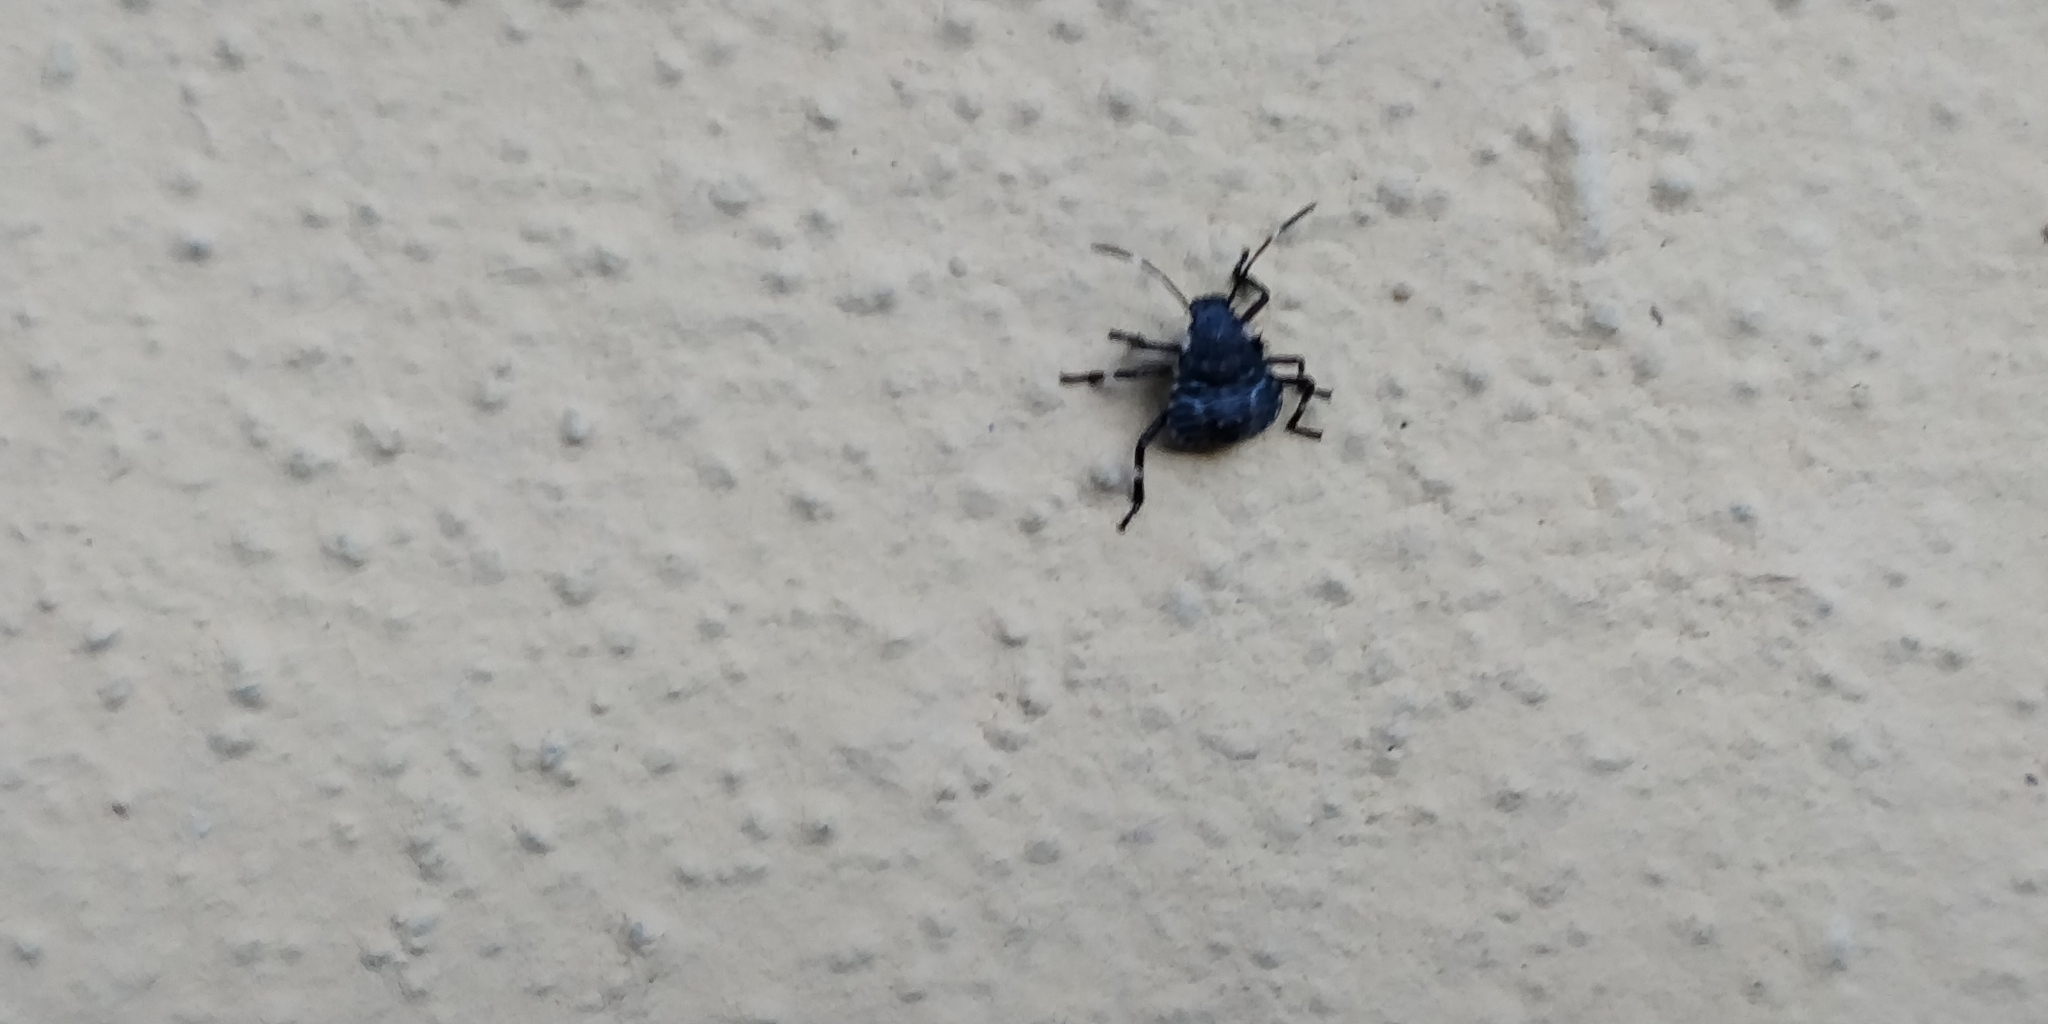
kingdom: Animalia
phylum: Arthropoda
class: Insecta
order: Hemiptera
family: Pentatomidae
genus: Halyomorpha
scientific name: Halyomorpha halys
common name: Brown marmorated stink bug
